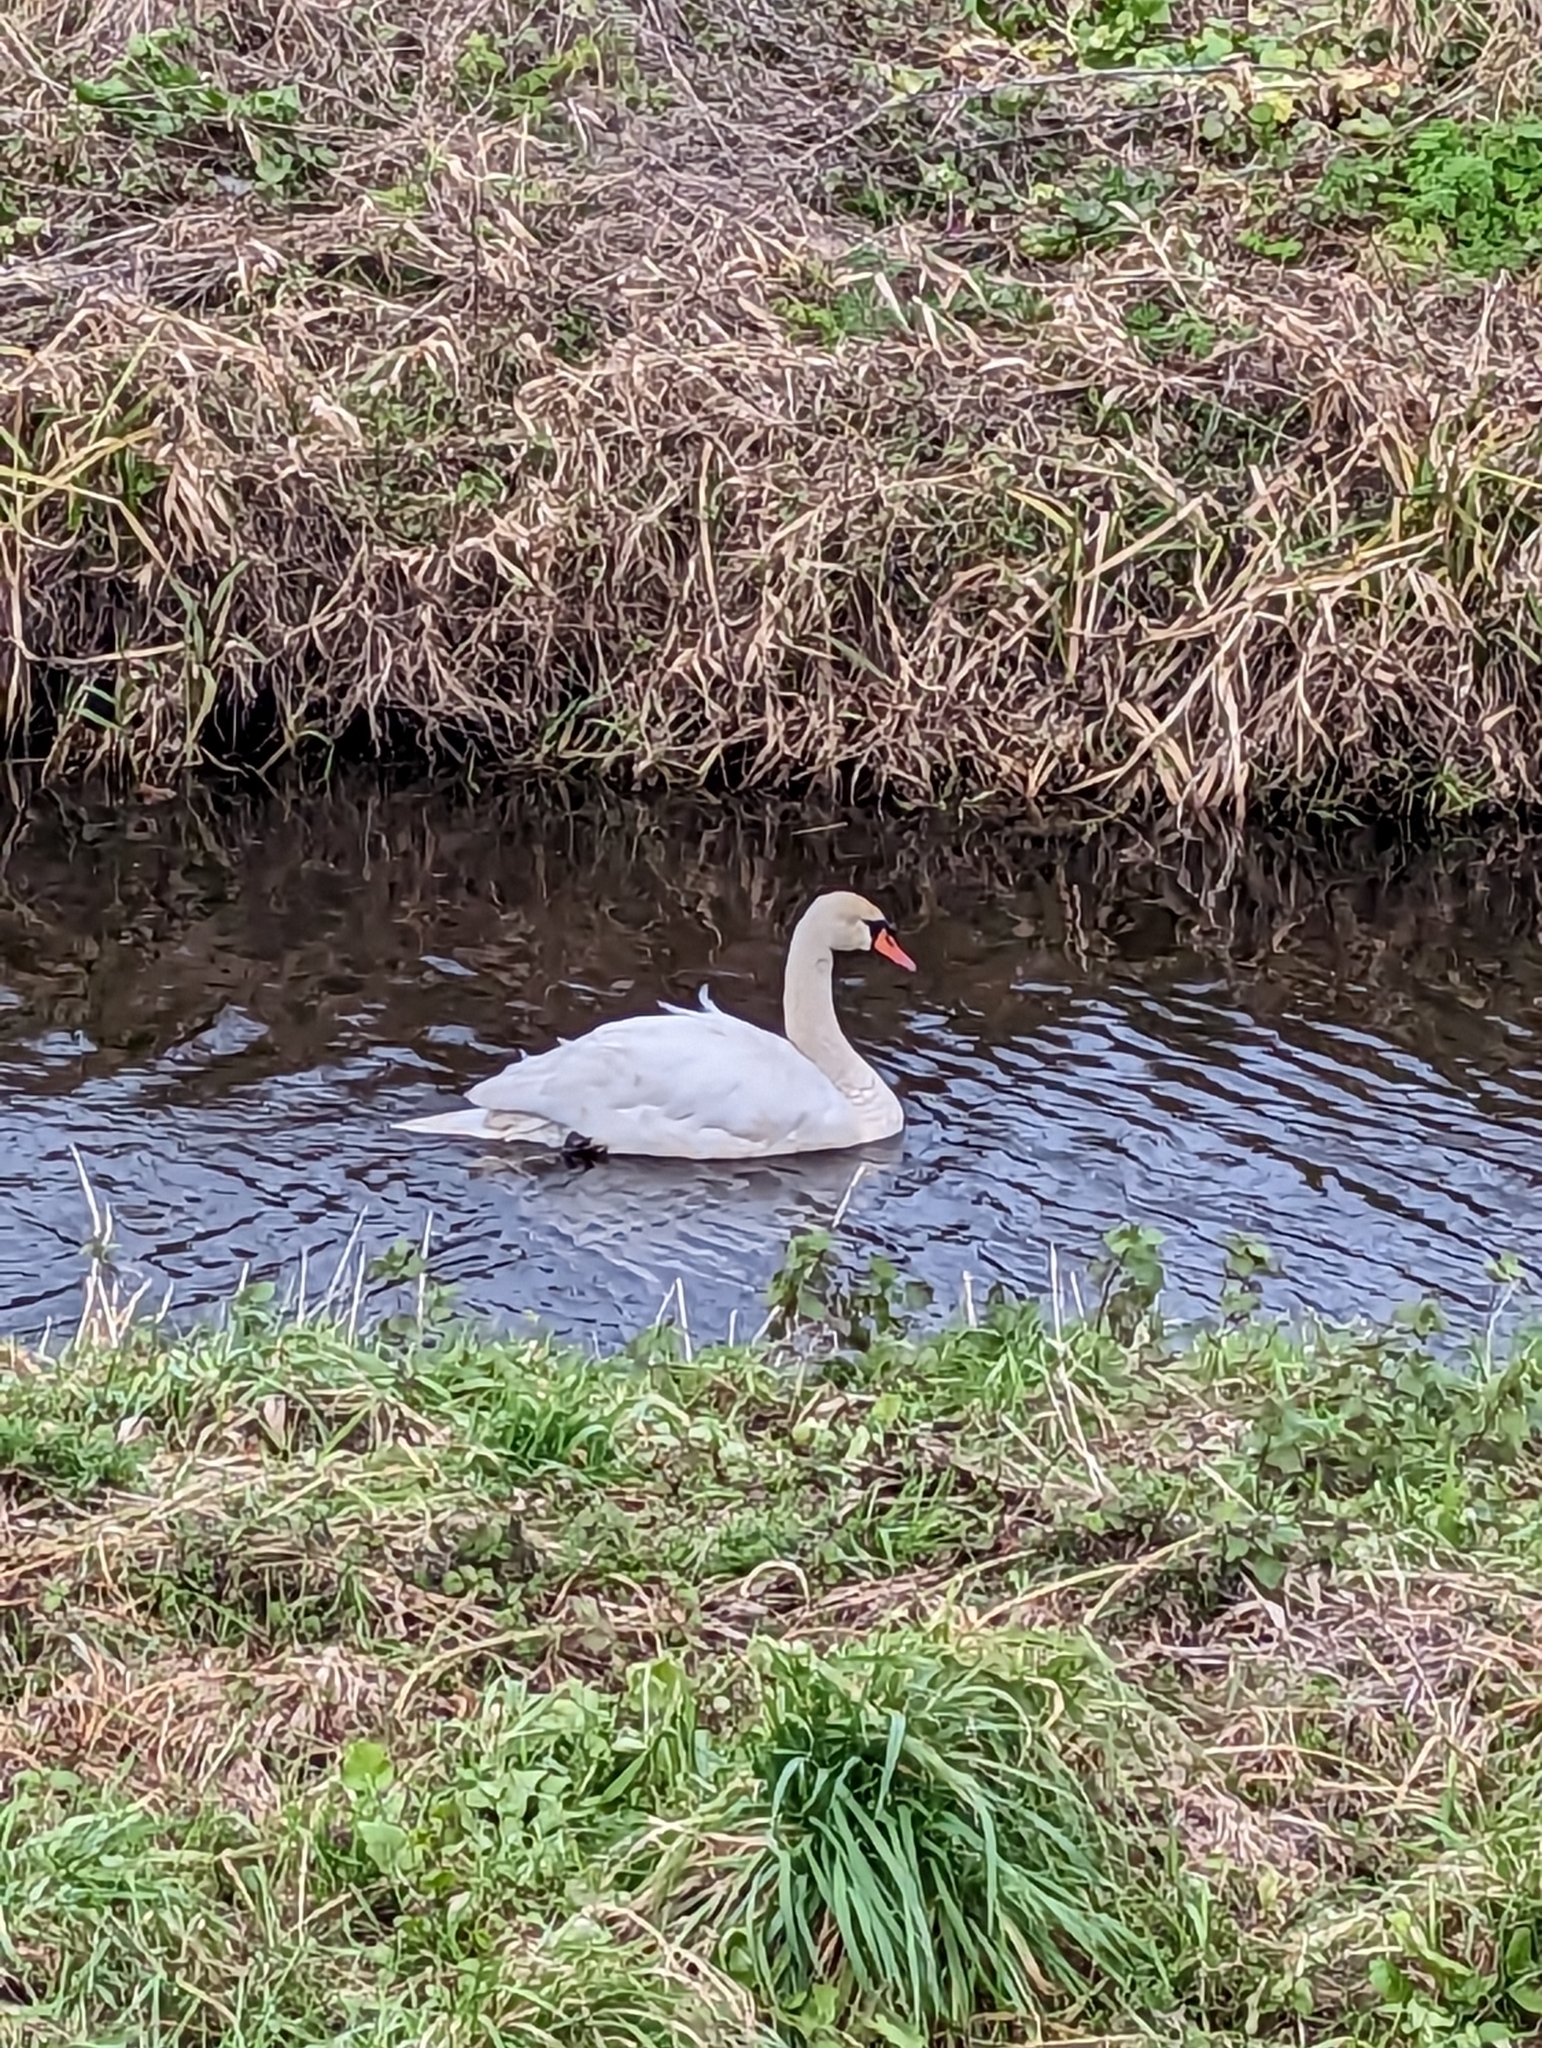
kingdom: Animalia
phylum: Chordata
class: Aves
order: Anseriformes
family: Anatidae
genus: Cygnus
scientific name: Cygnus olor
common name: Mute swan
